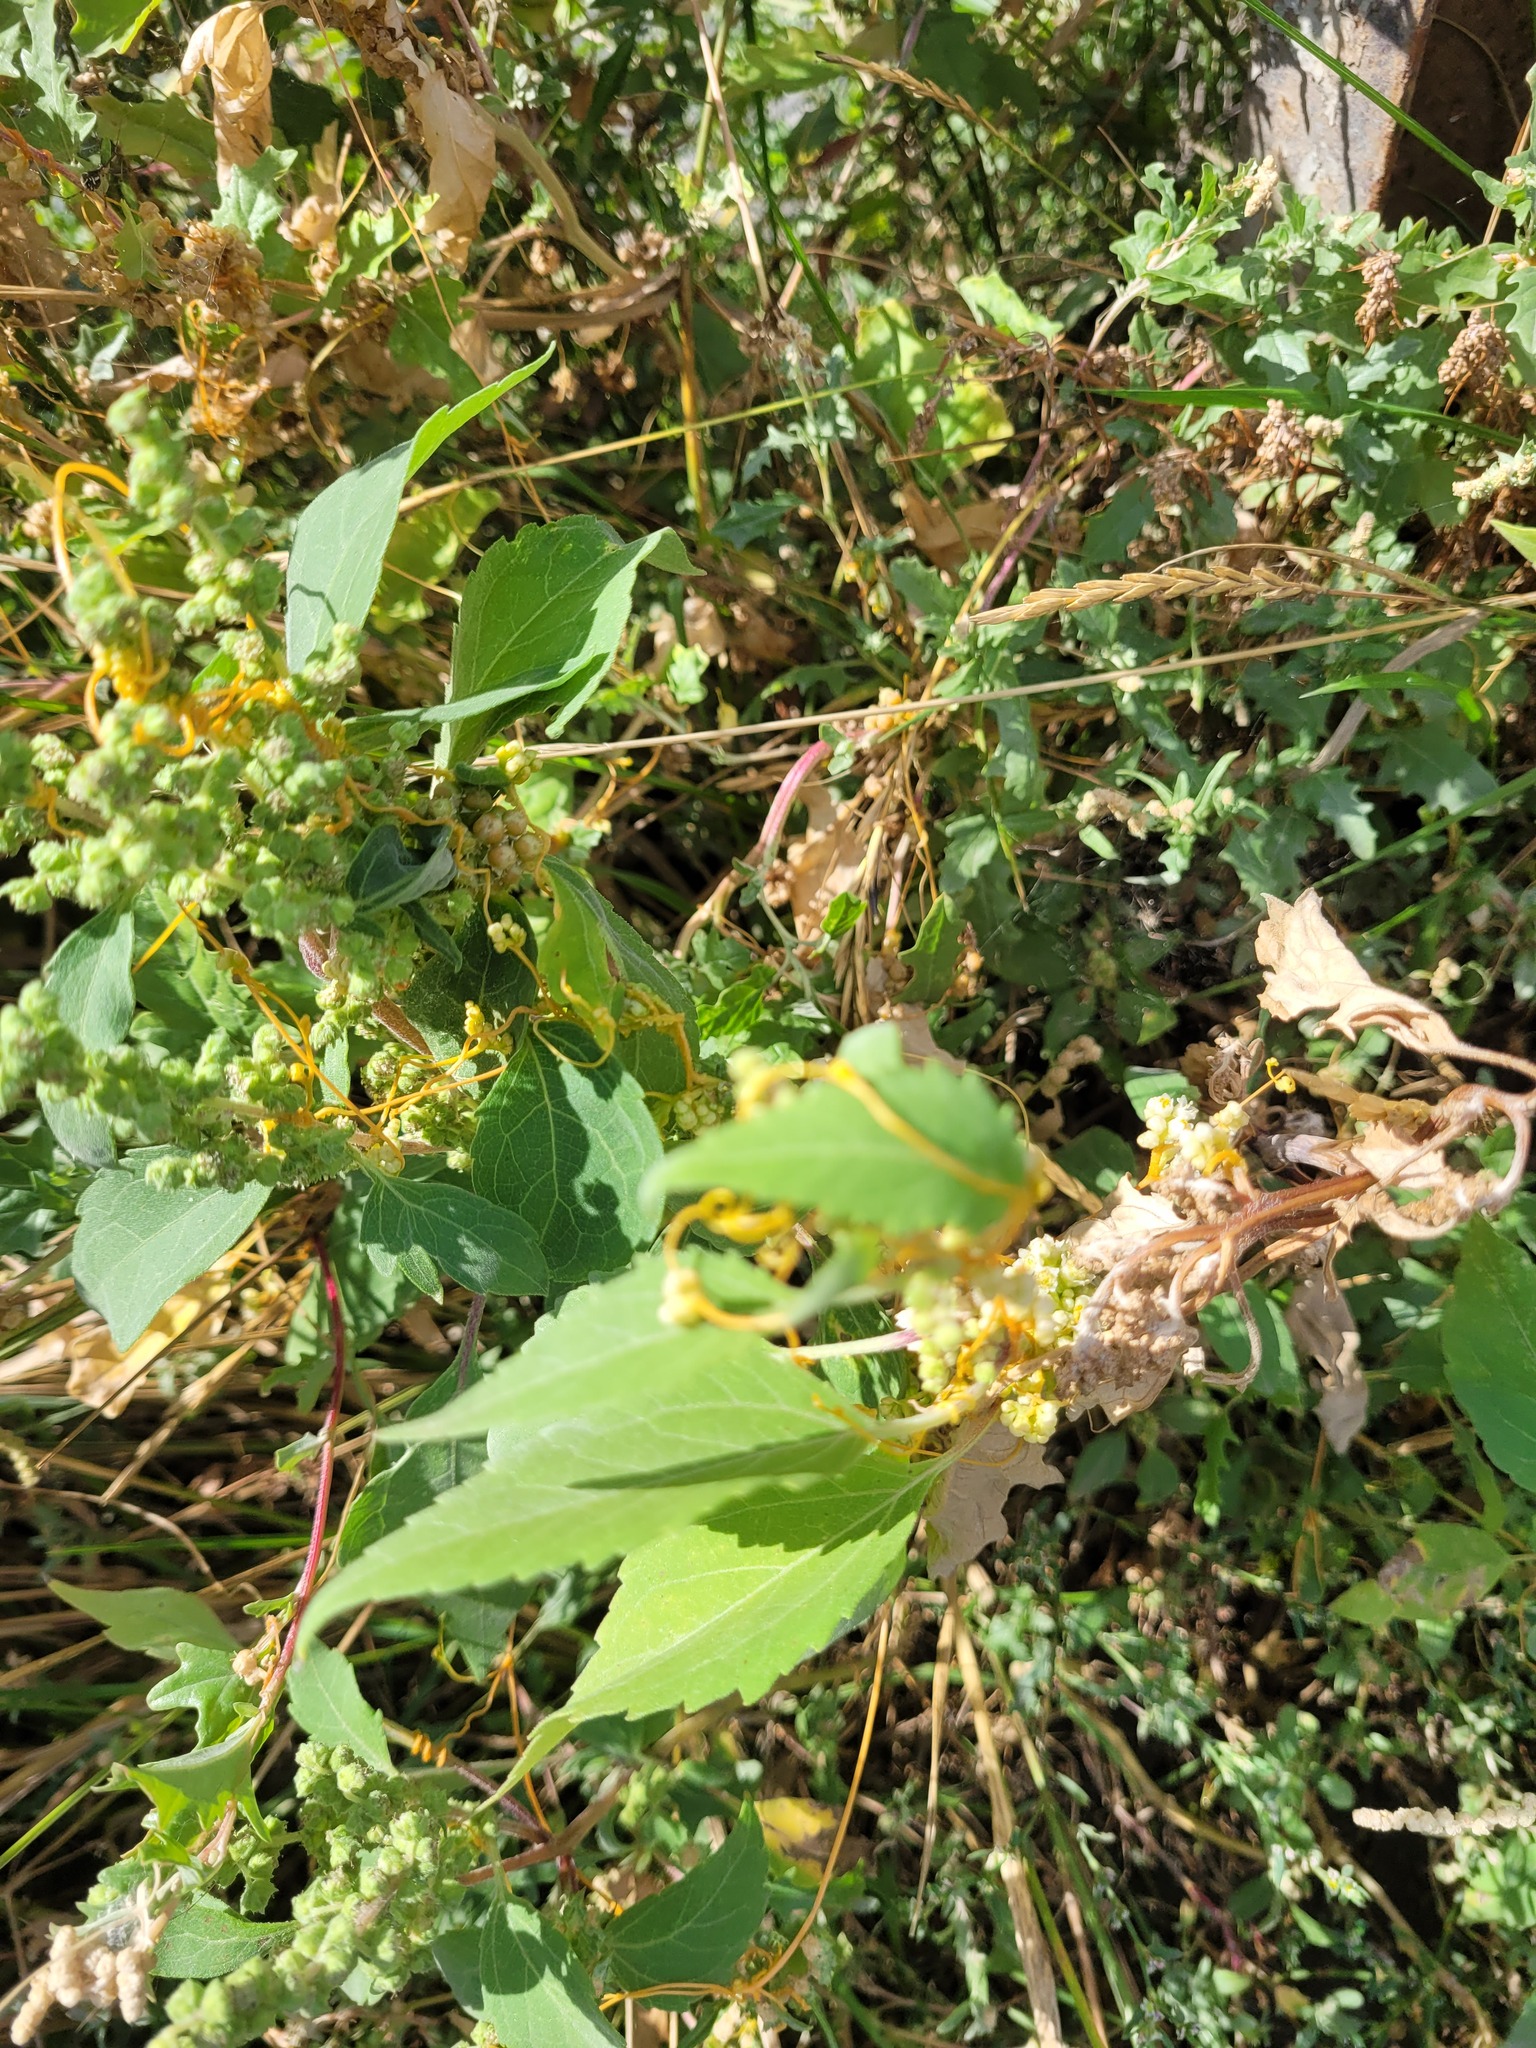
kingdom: Plantae
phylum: Tracheophyta
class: Magnoliopsida
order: Solanales
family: Convolvulaceae
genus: Cuscuta
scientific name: Cuscuta campestris
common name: Yellow dodder
